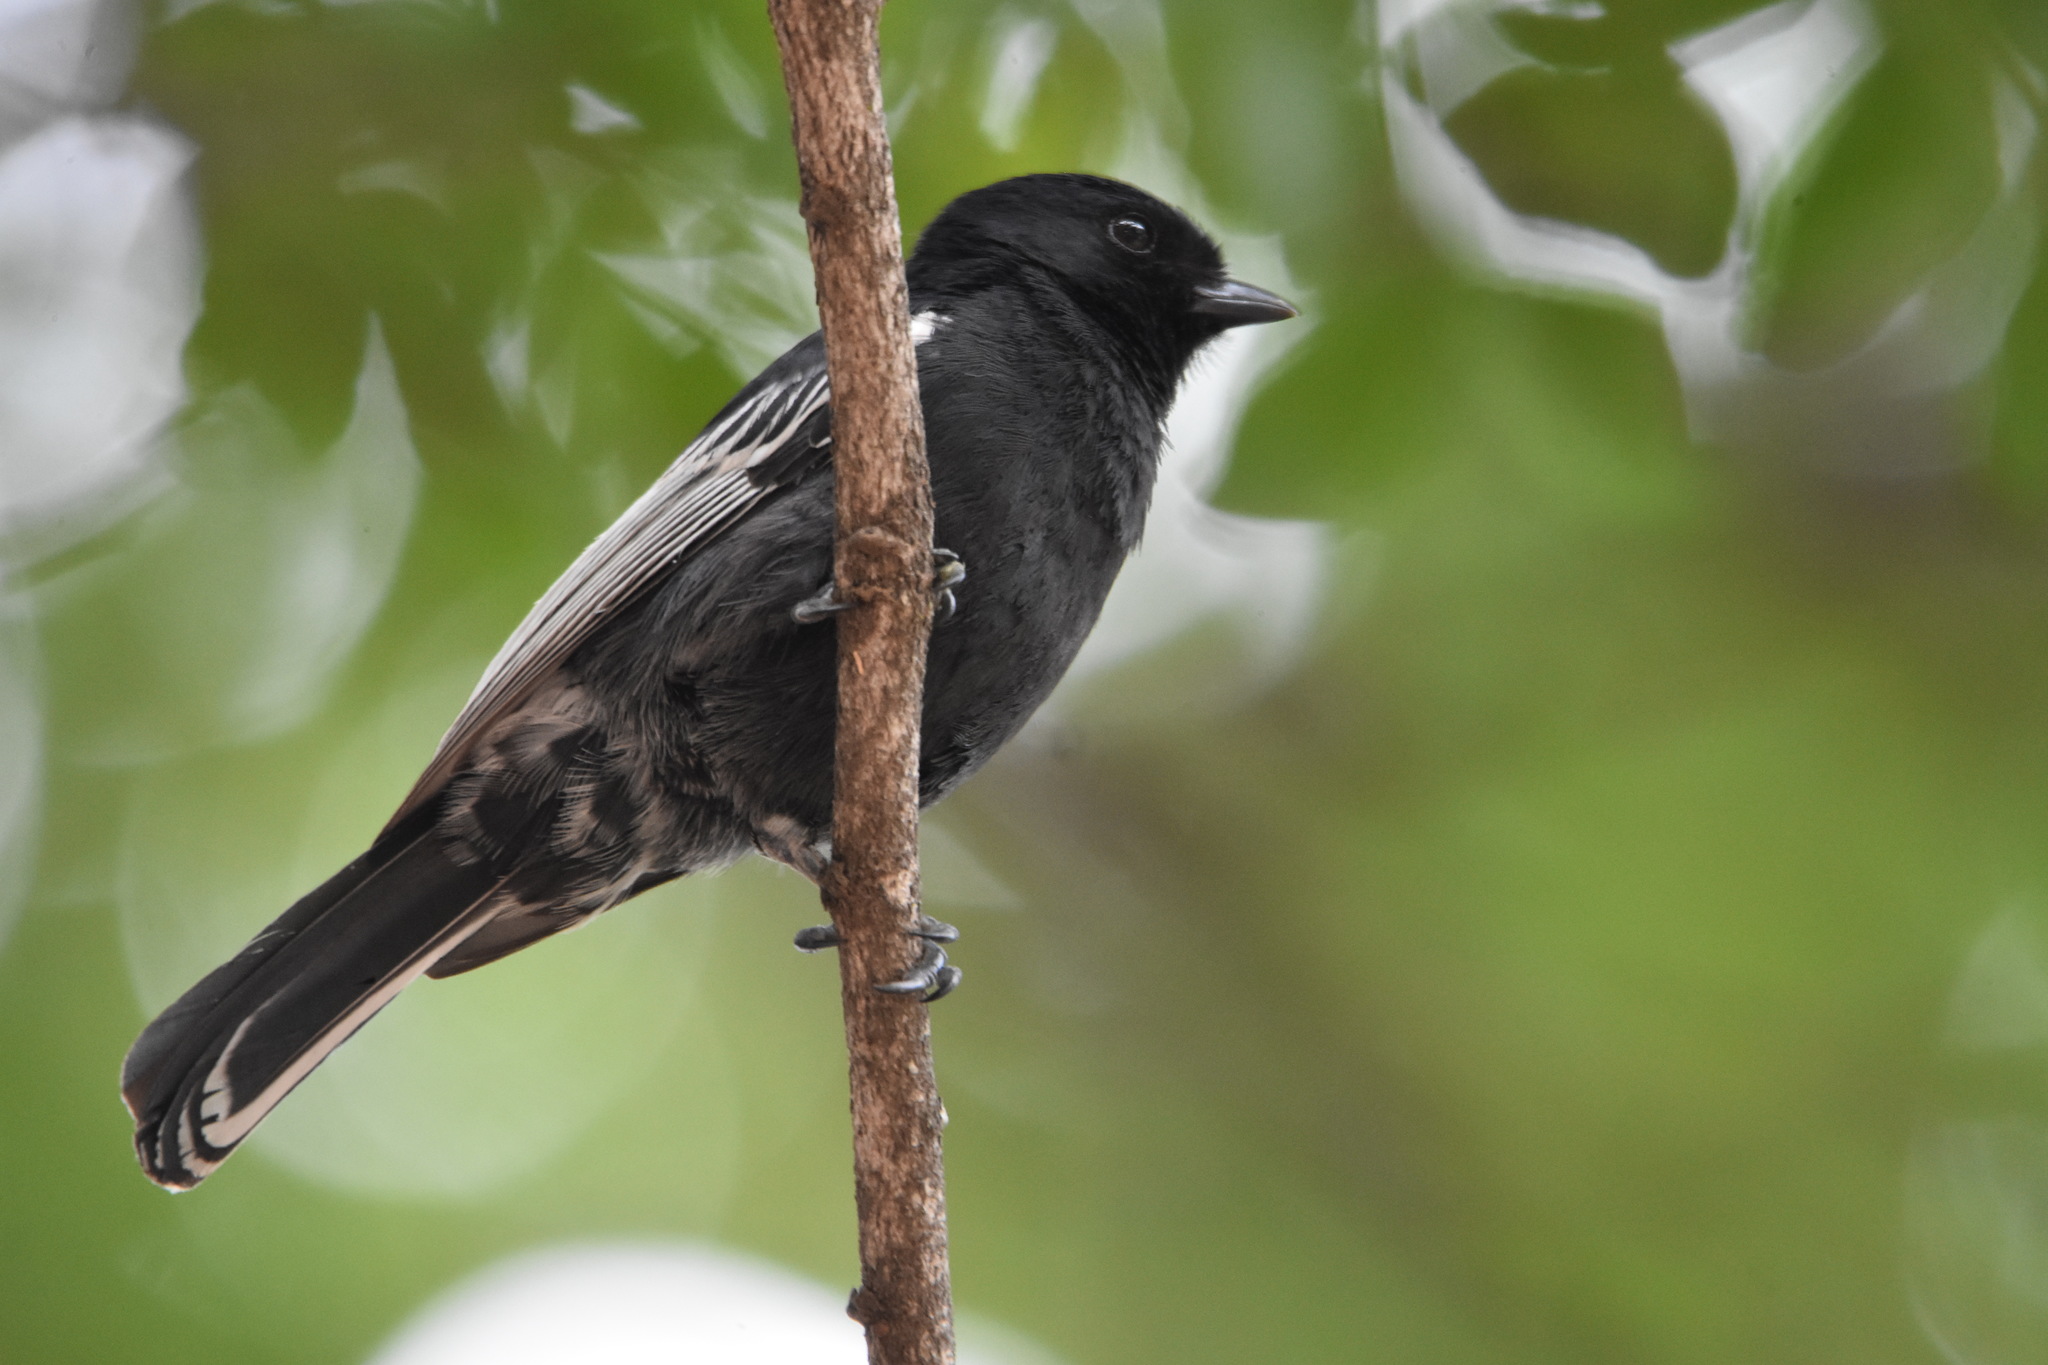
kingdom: Animalia
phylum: Chordata
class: Aves
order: Passeriformes
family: Paridae
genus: Parus
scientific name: Parus niger
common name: Southern black tit
